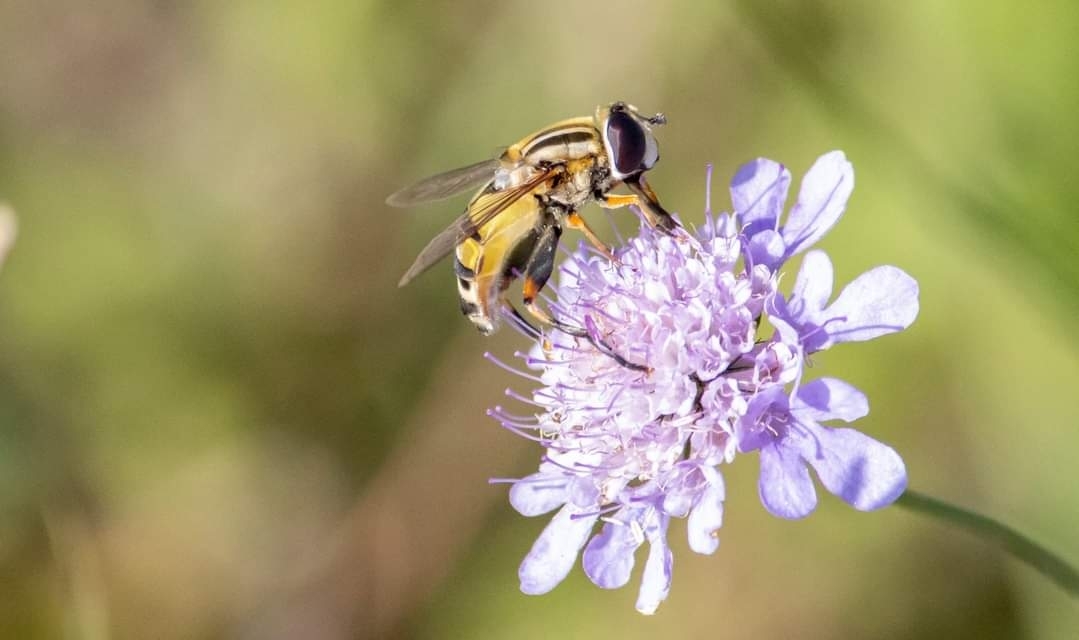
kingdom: Animalia
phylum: Arthropoda
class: Insecta
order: Diptera
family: Syrphidae
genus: Helophilus
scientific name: Helophilus trivittatus
